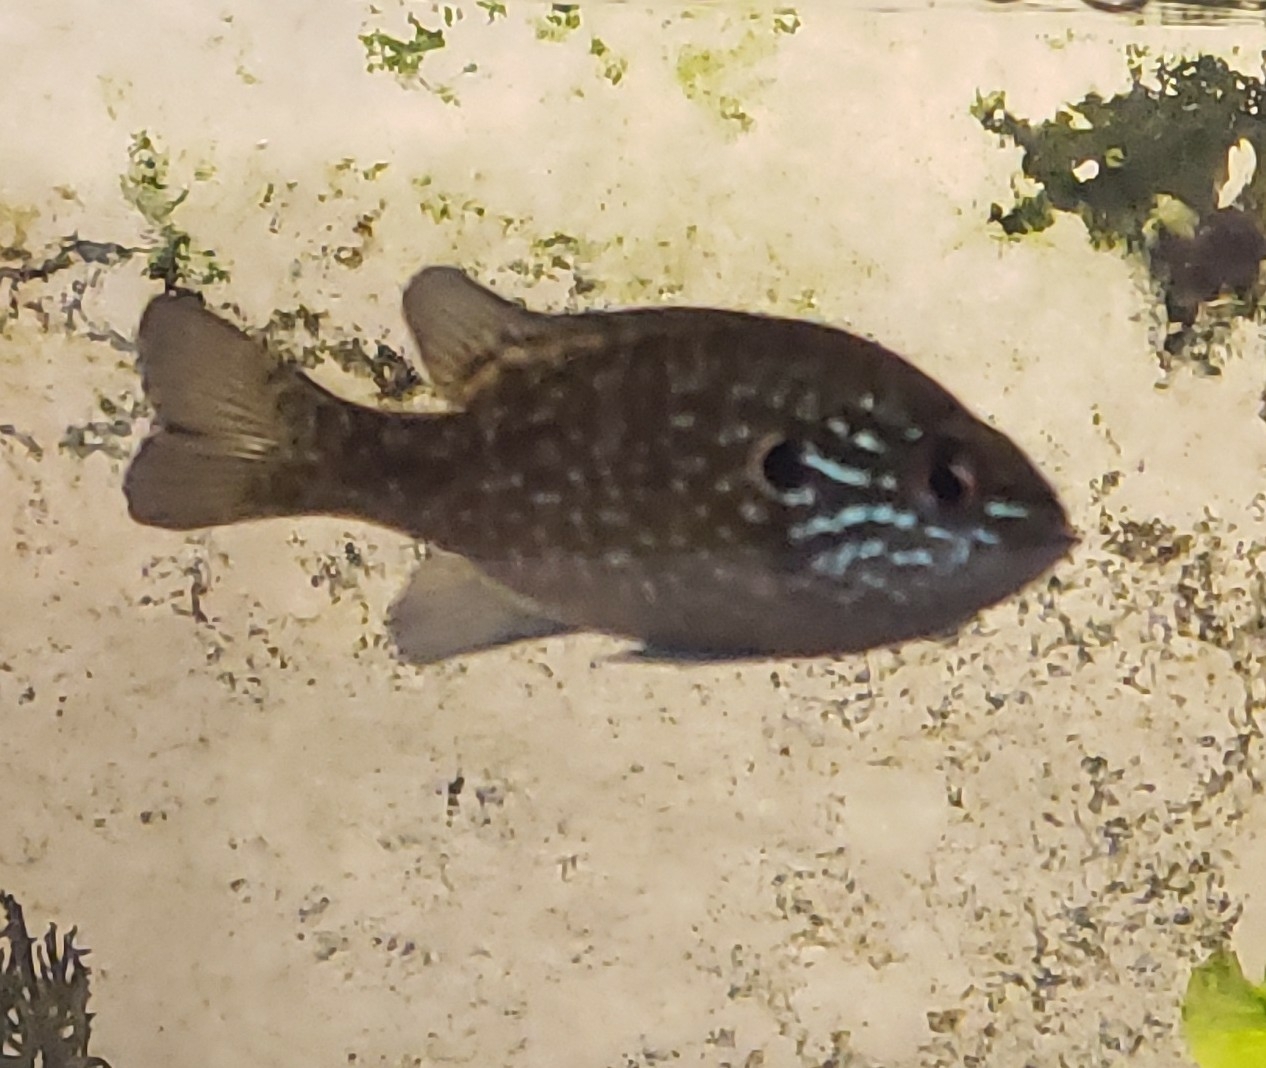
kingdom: Animalia
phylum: Chordata
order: Perciformes
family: Centrarchidae
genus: Lepomis
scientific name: Lepomis marginatus
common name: Dollar sunfish
